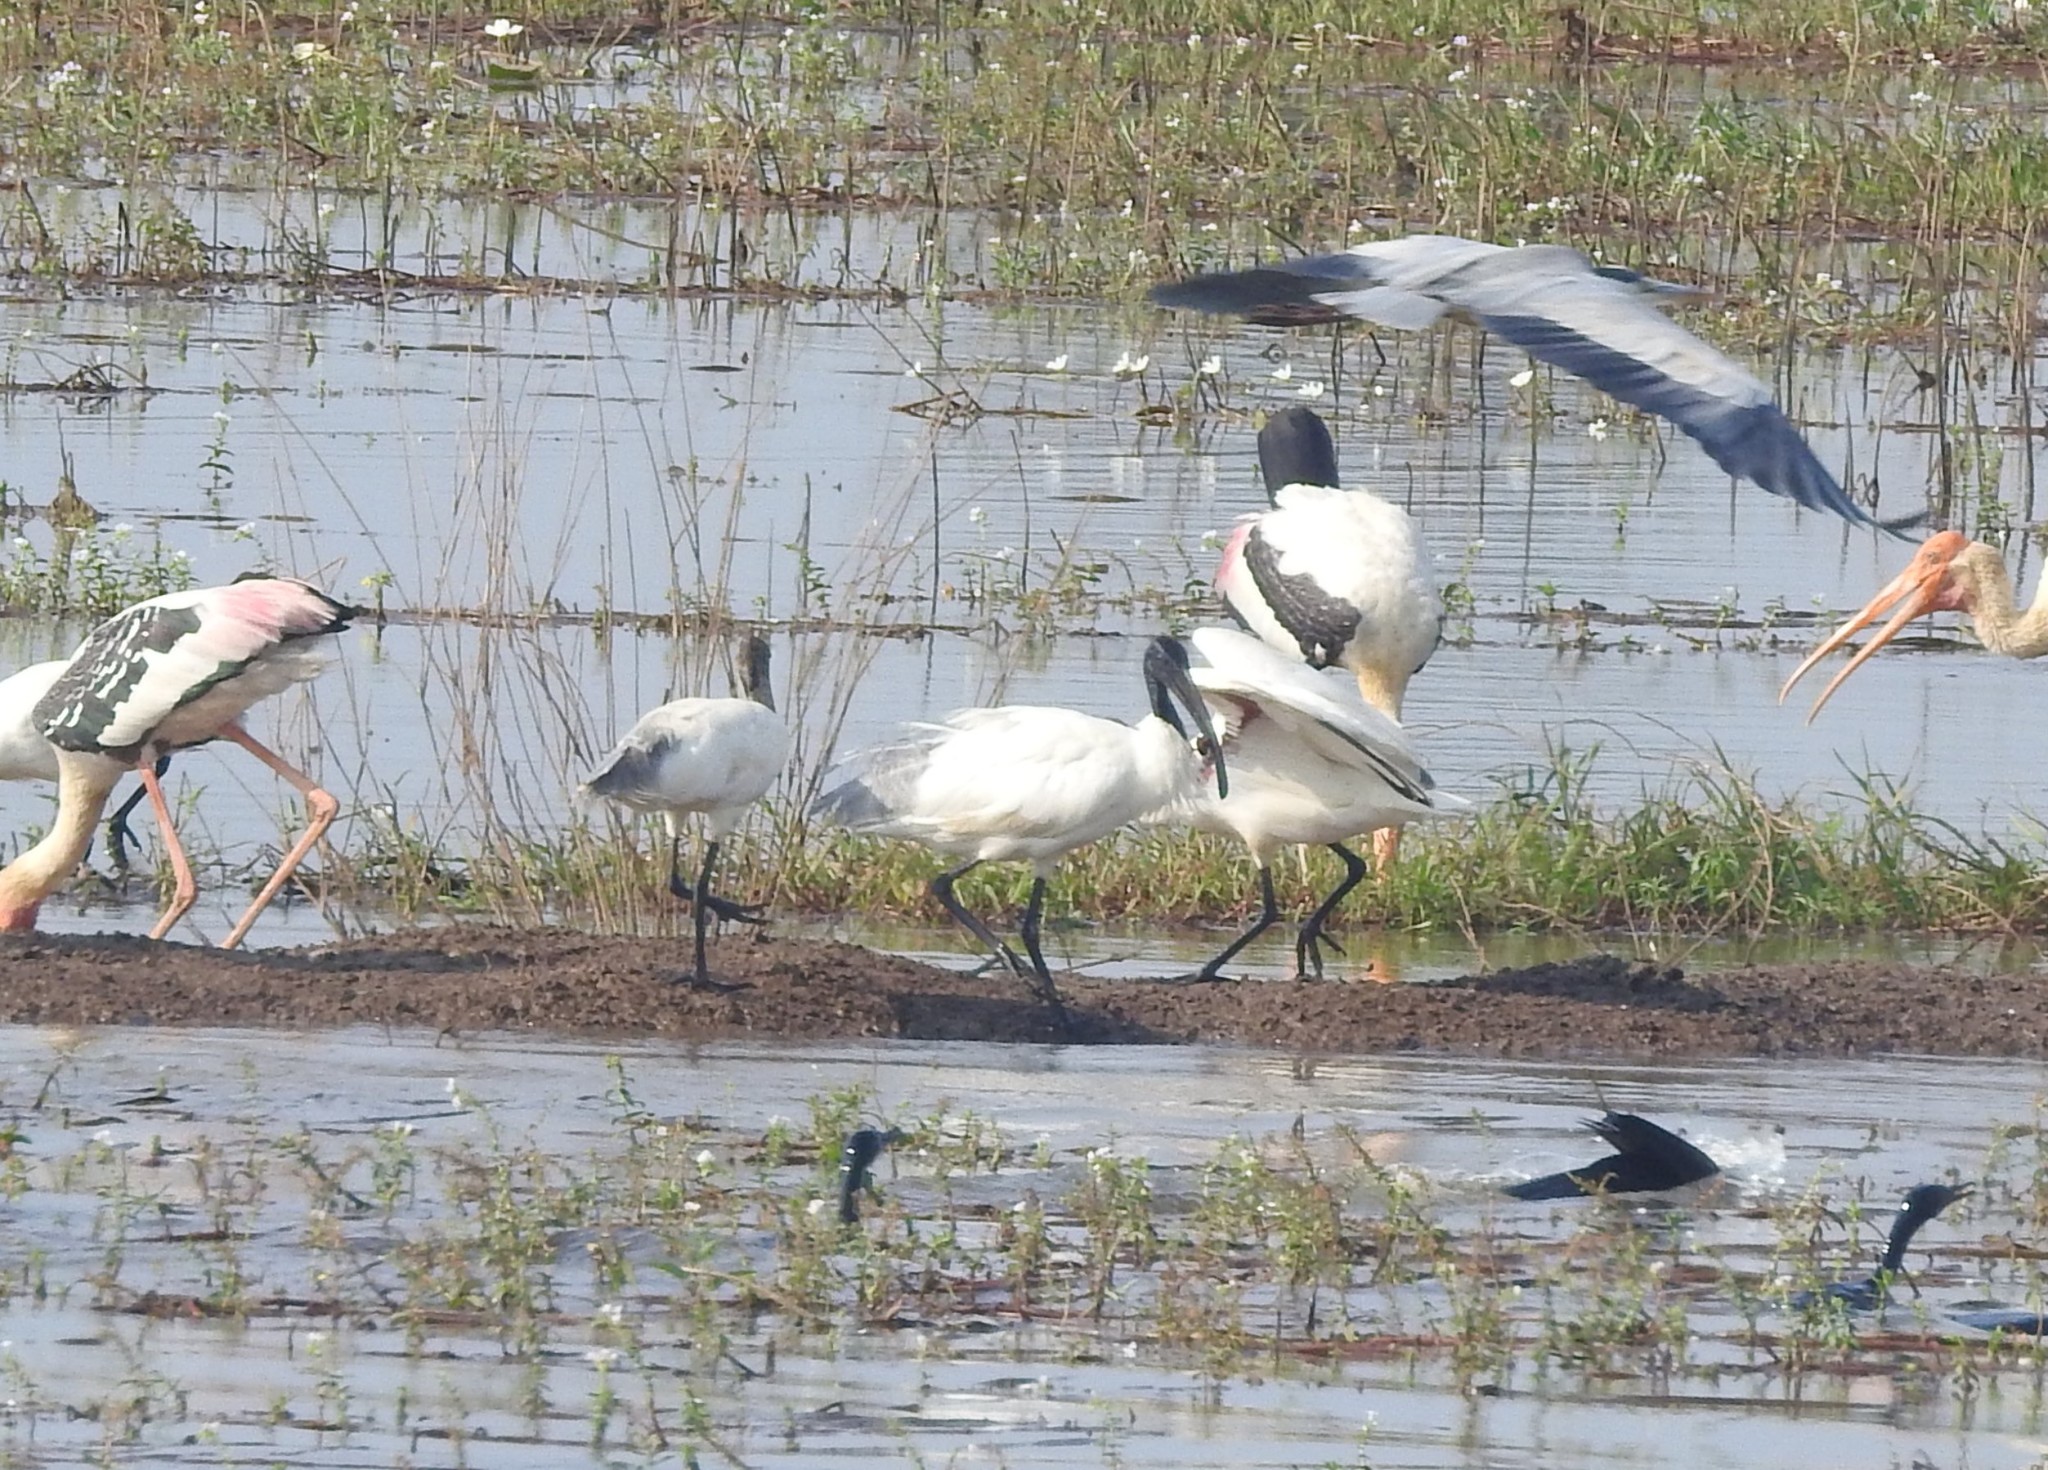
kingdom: Animalia
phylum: Chordata
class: Aves
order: Pelecaniformes
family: Threskiornithidae
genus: Threskiornis
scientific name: Threskiornis melanocephalus
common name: Black-headed ibis
